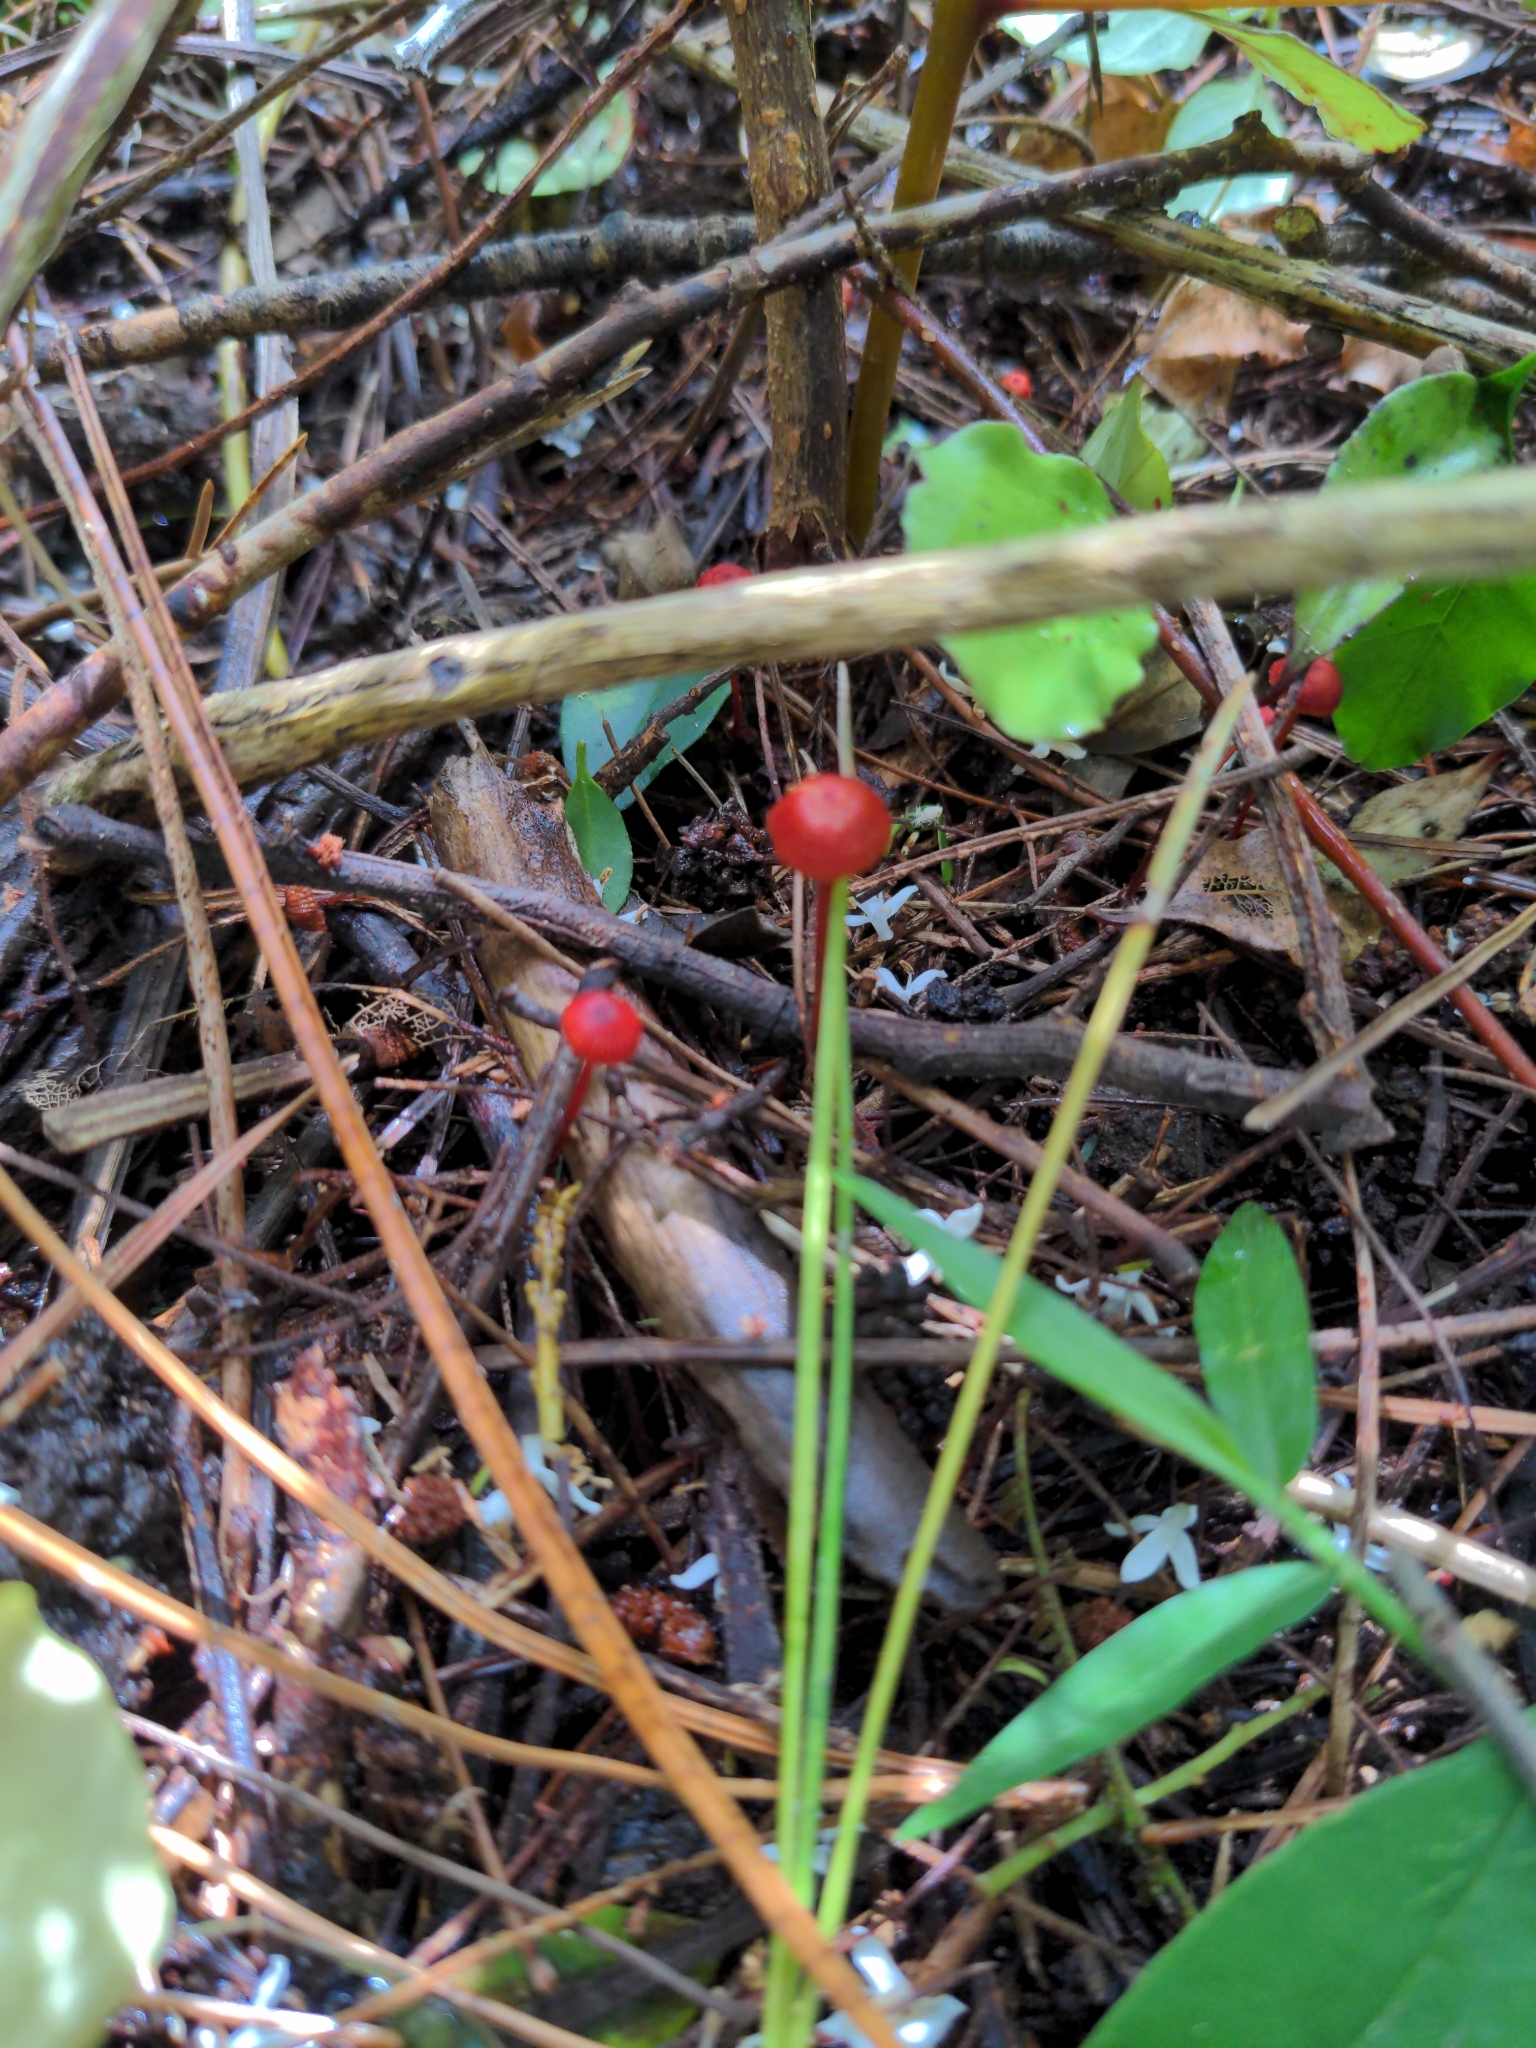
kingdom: Fungi
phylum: Basidiomycota
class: Agaricomycetes
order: Agaricales
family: Mycenaceae
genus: Cruentomycena
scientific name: Cruentomycena viscidocruenta
